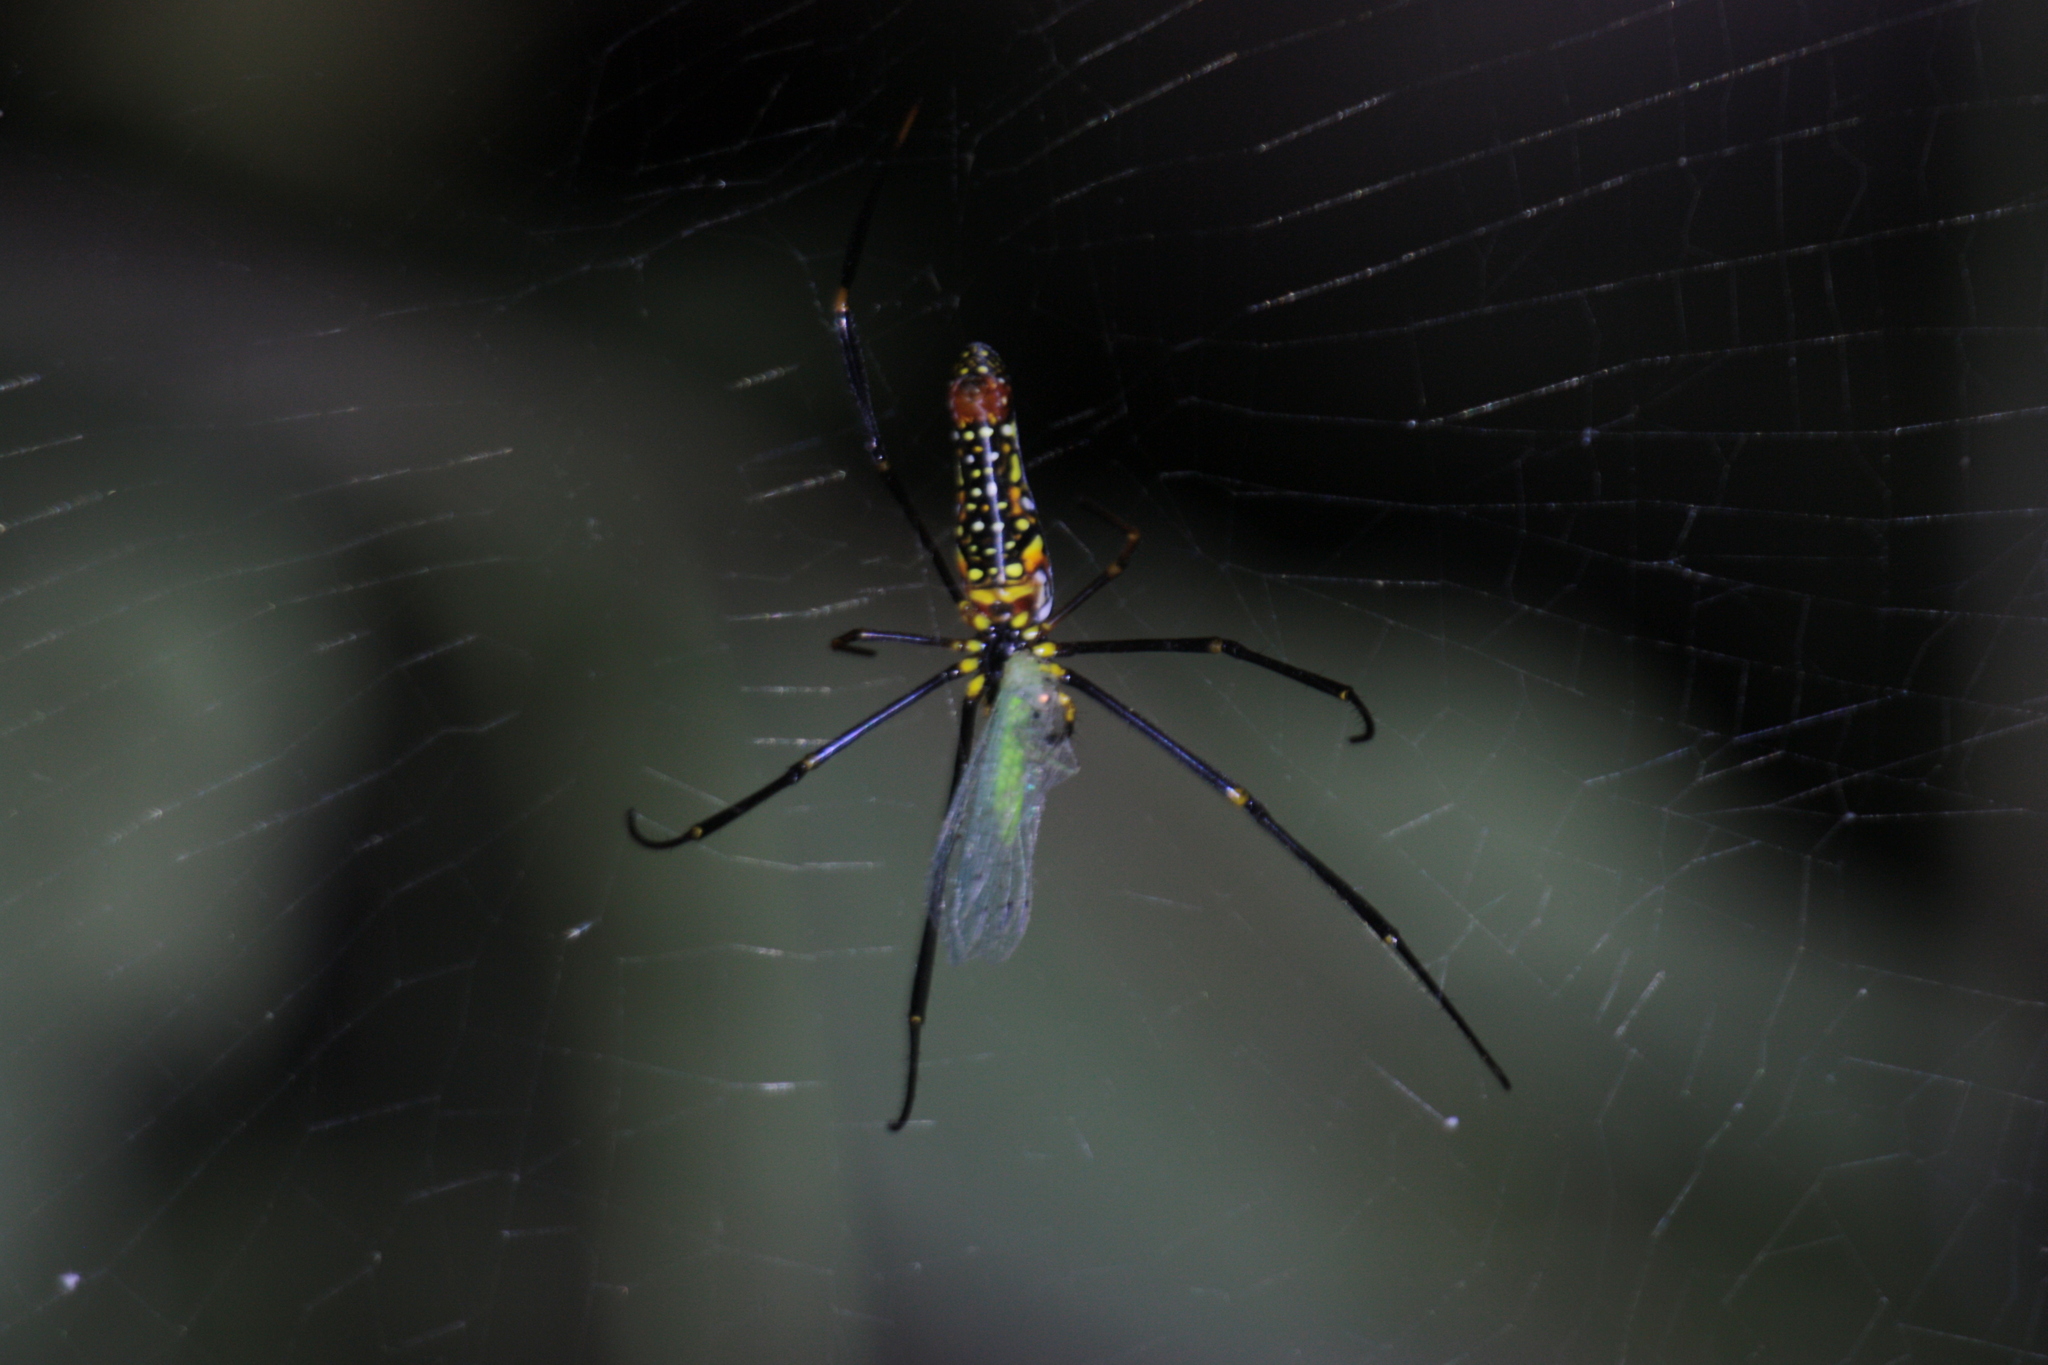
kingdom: Animalia
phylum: Arthropoda
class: Arachnida
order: Araneae
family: Araneidae
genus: Nephila
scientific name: Nephila pilipes
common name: Giant golden orb weaver
